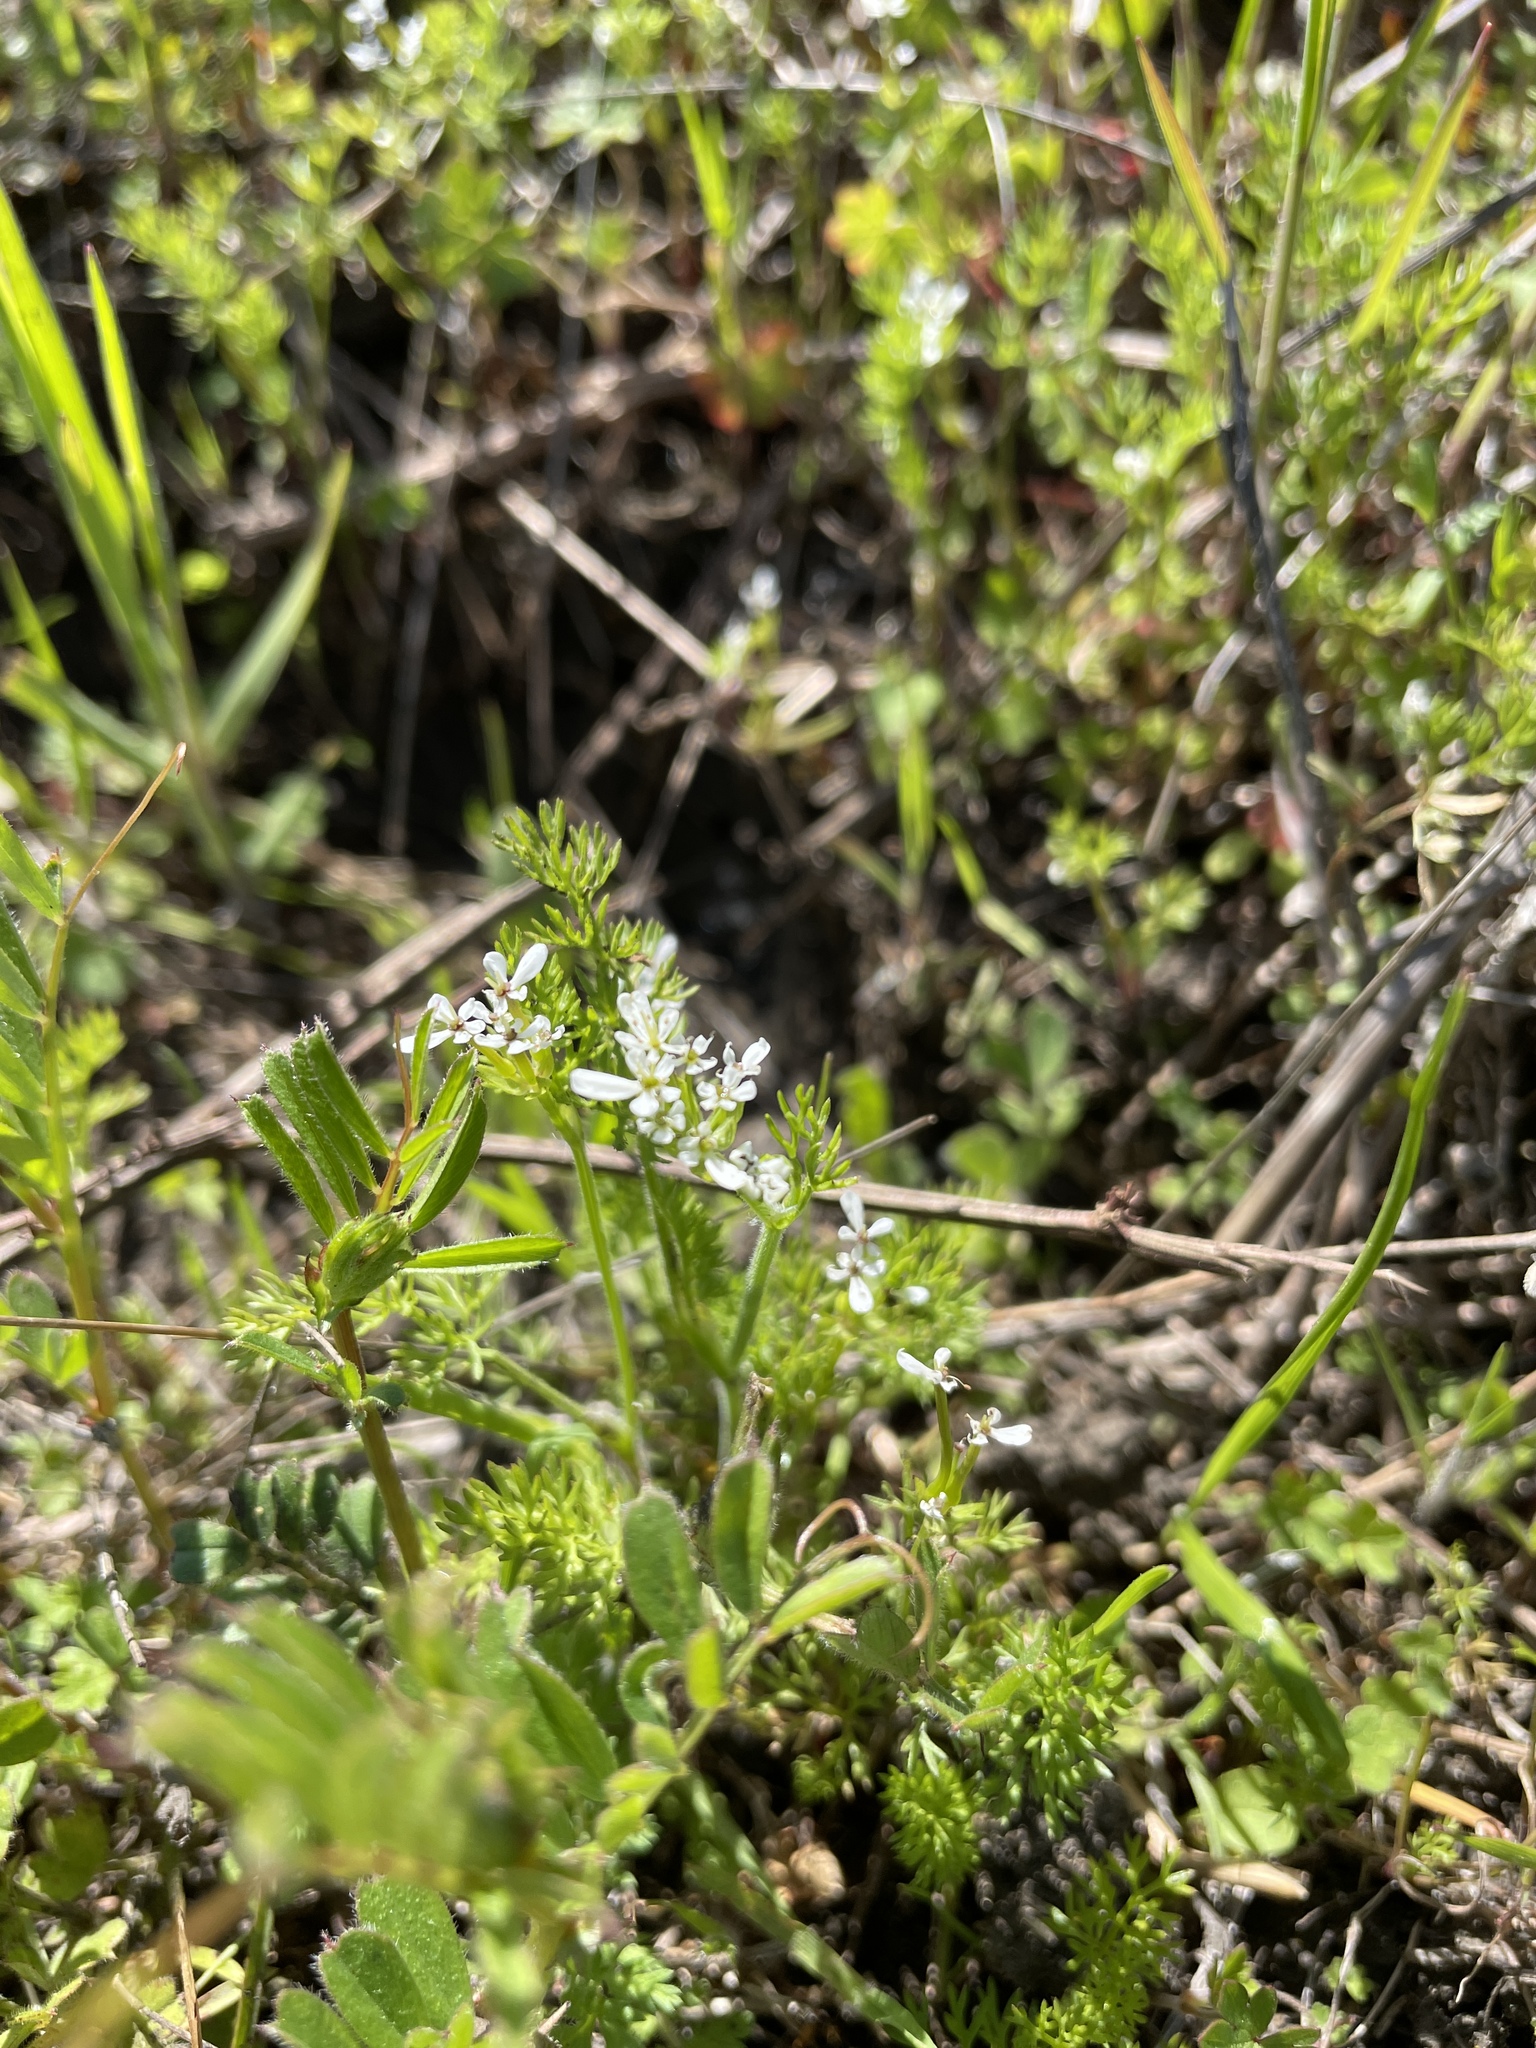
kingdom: Plantae
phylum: Tracheophyta
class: Magnoliopsida
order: Apiales
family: Apiaceae
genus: Scandix
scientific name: Scandix pecten-veneris
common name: Shepherd's-needle
